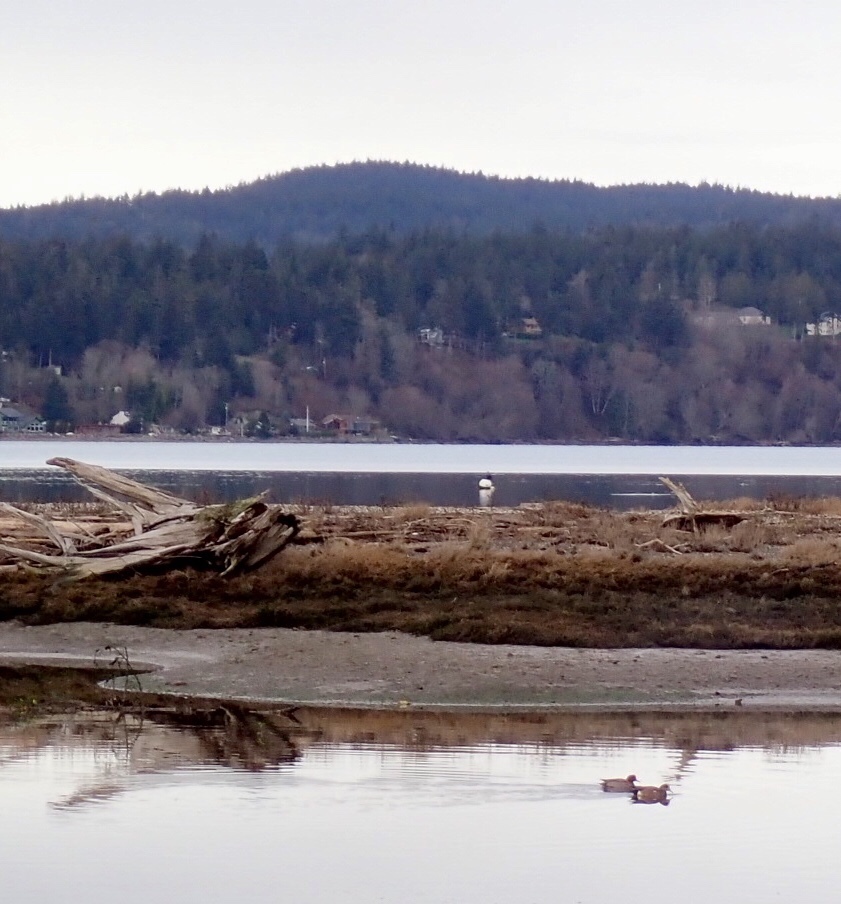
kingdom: Animalia
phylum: Chordata
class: Aves
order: Anseriformes
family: Anatidae
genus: Mareca
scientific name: Mareca americana
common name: American wigeon
